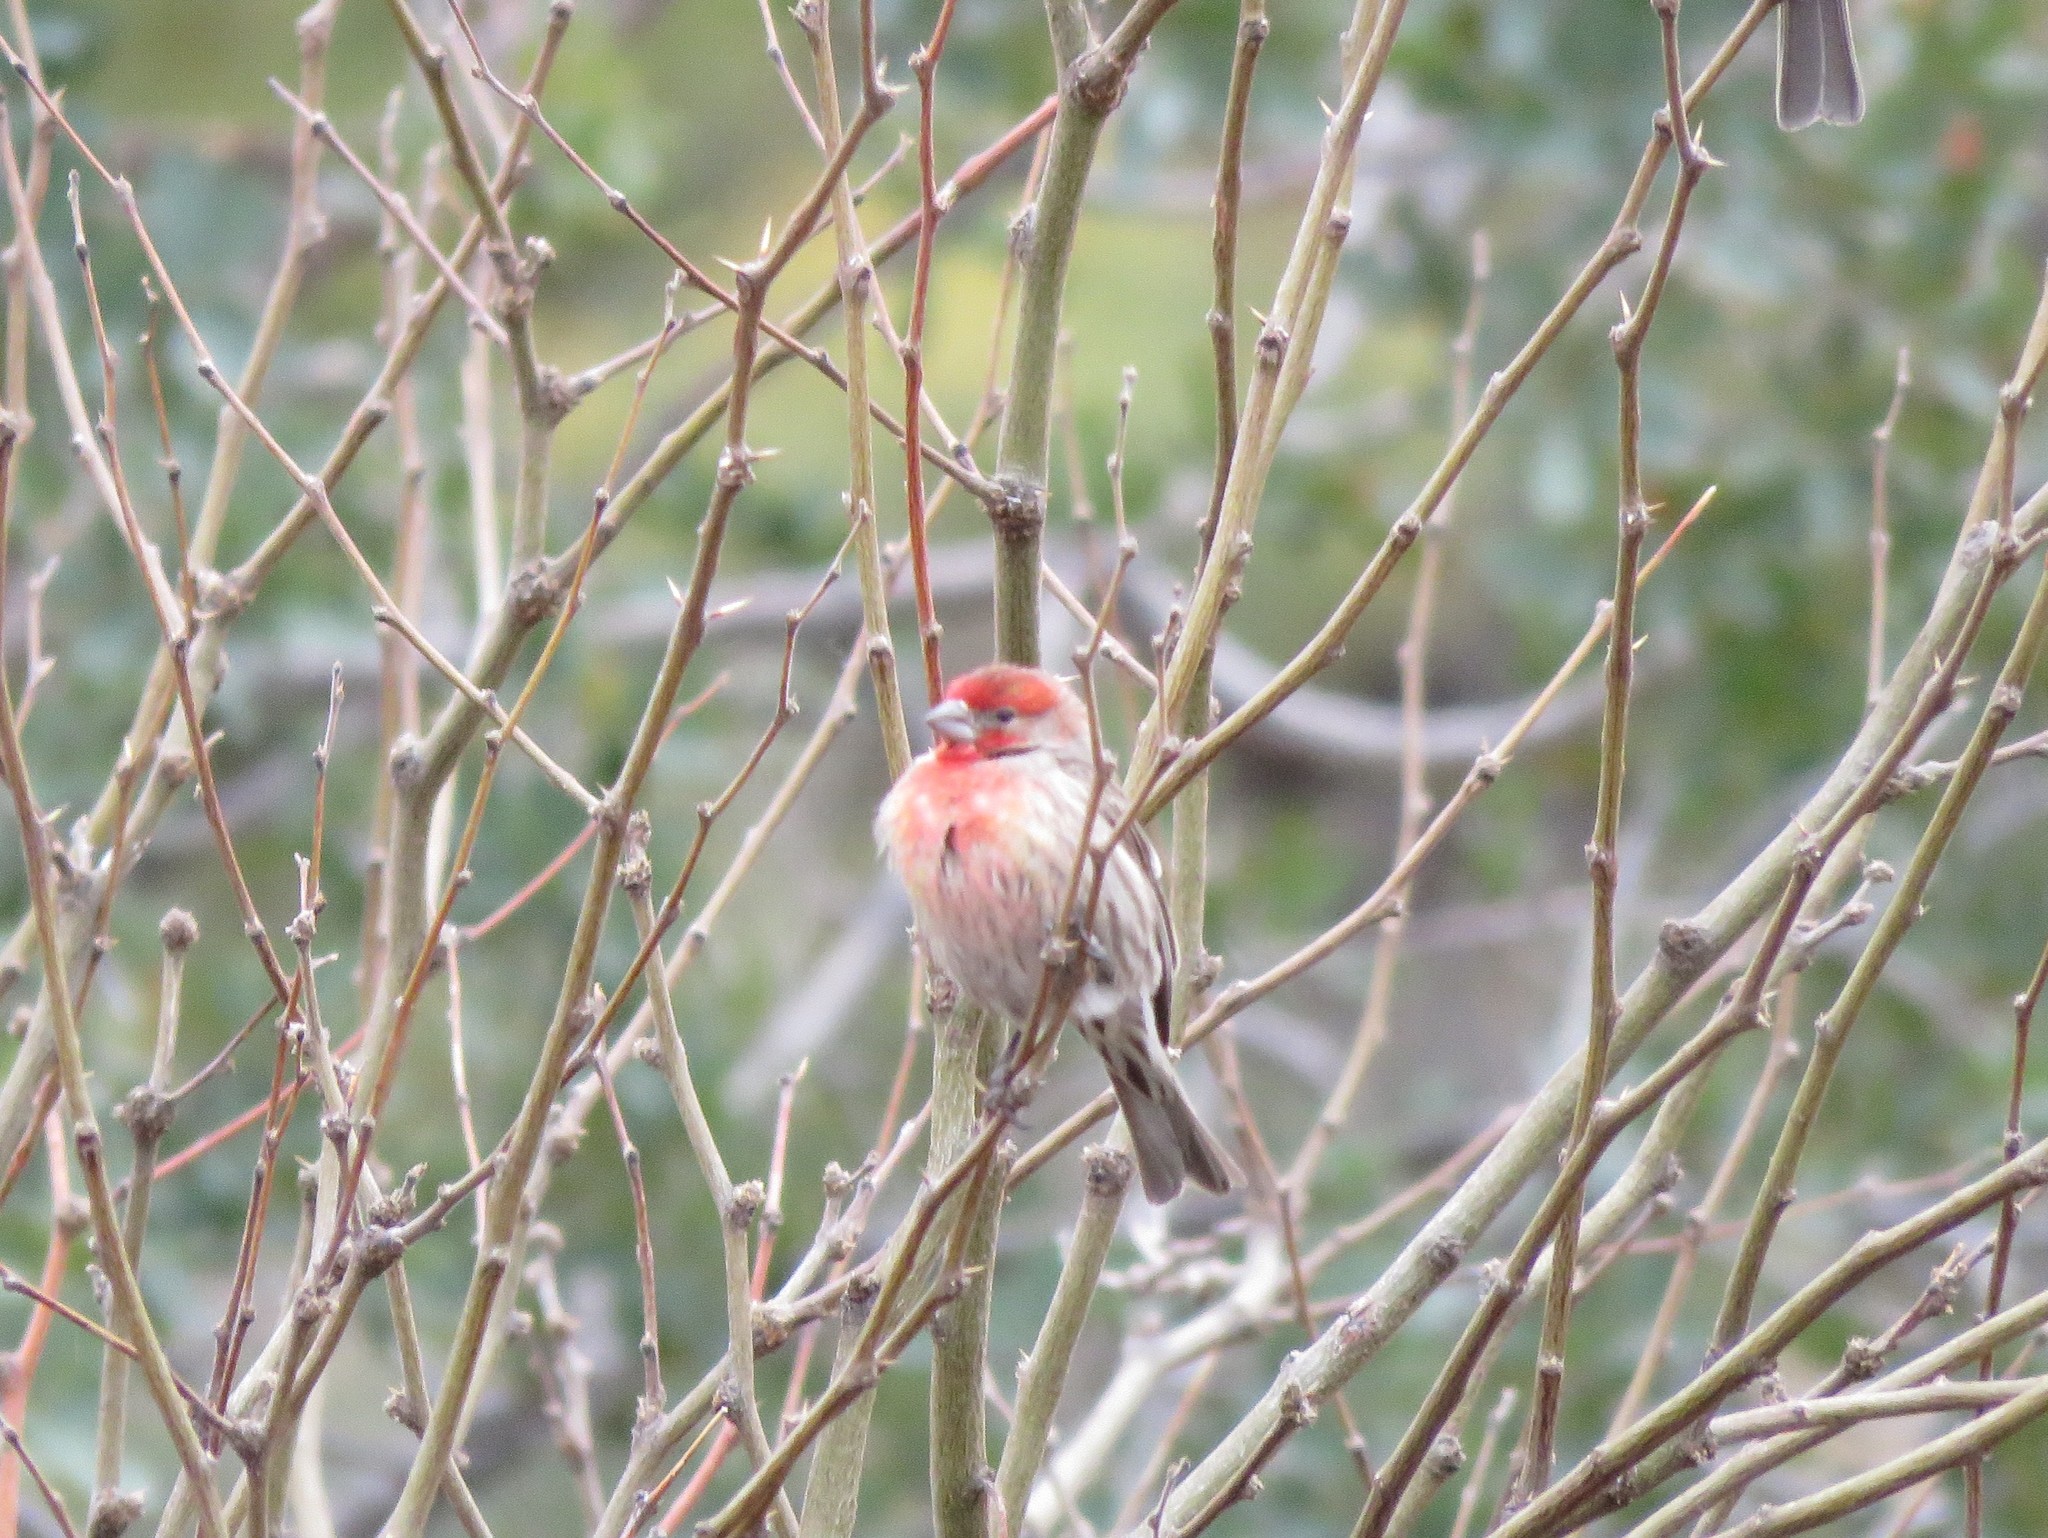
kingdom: Animalia
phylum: Chordata
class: Aves
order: Passeriformes
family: Fringillidae
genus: Haemorhous
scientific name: Haemorhous mexicanus
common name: House finch
